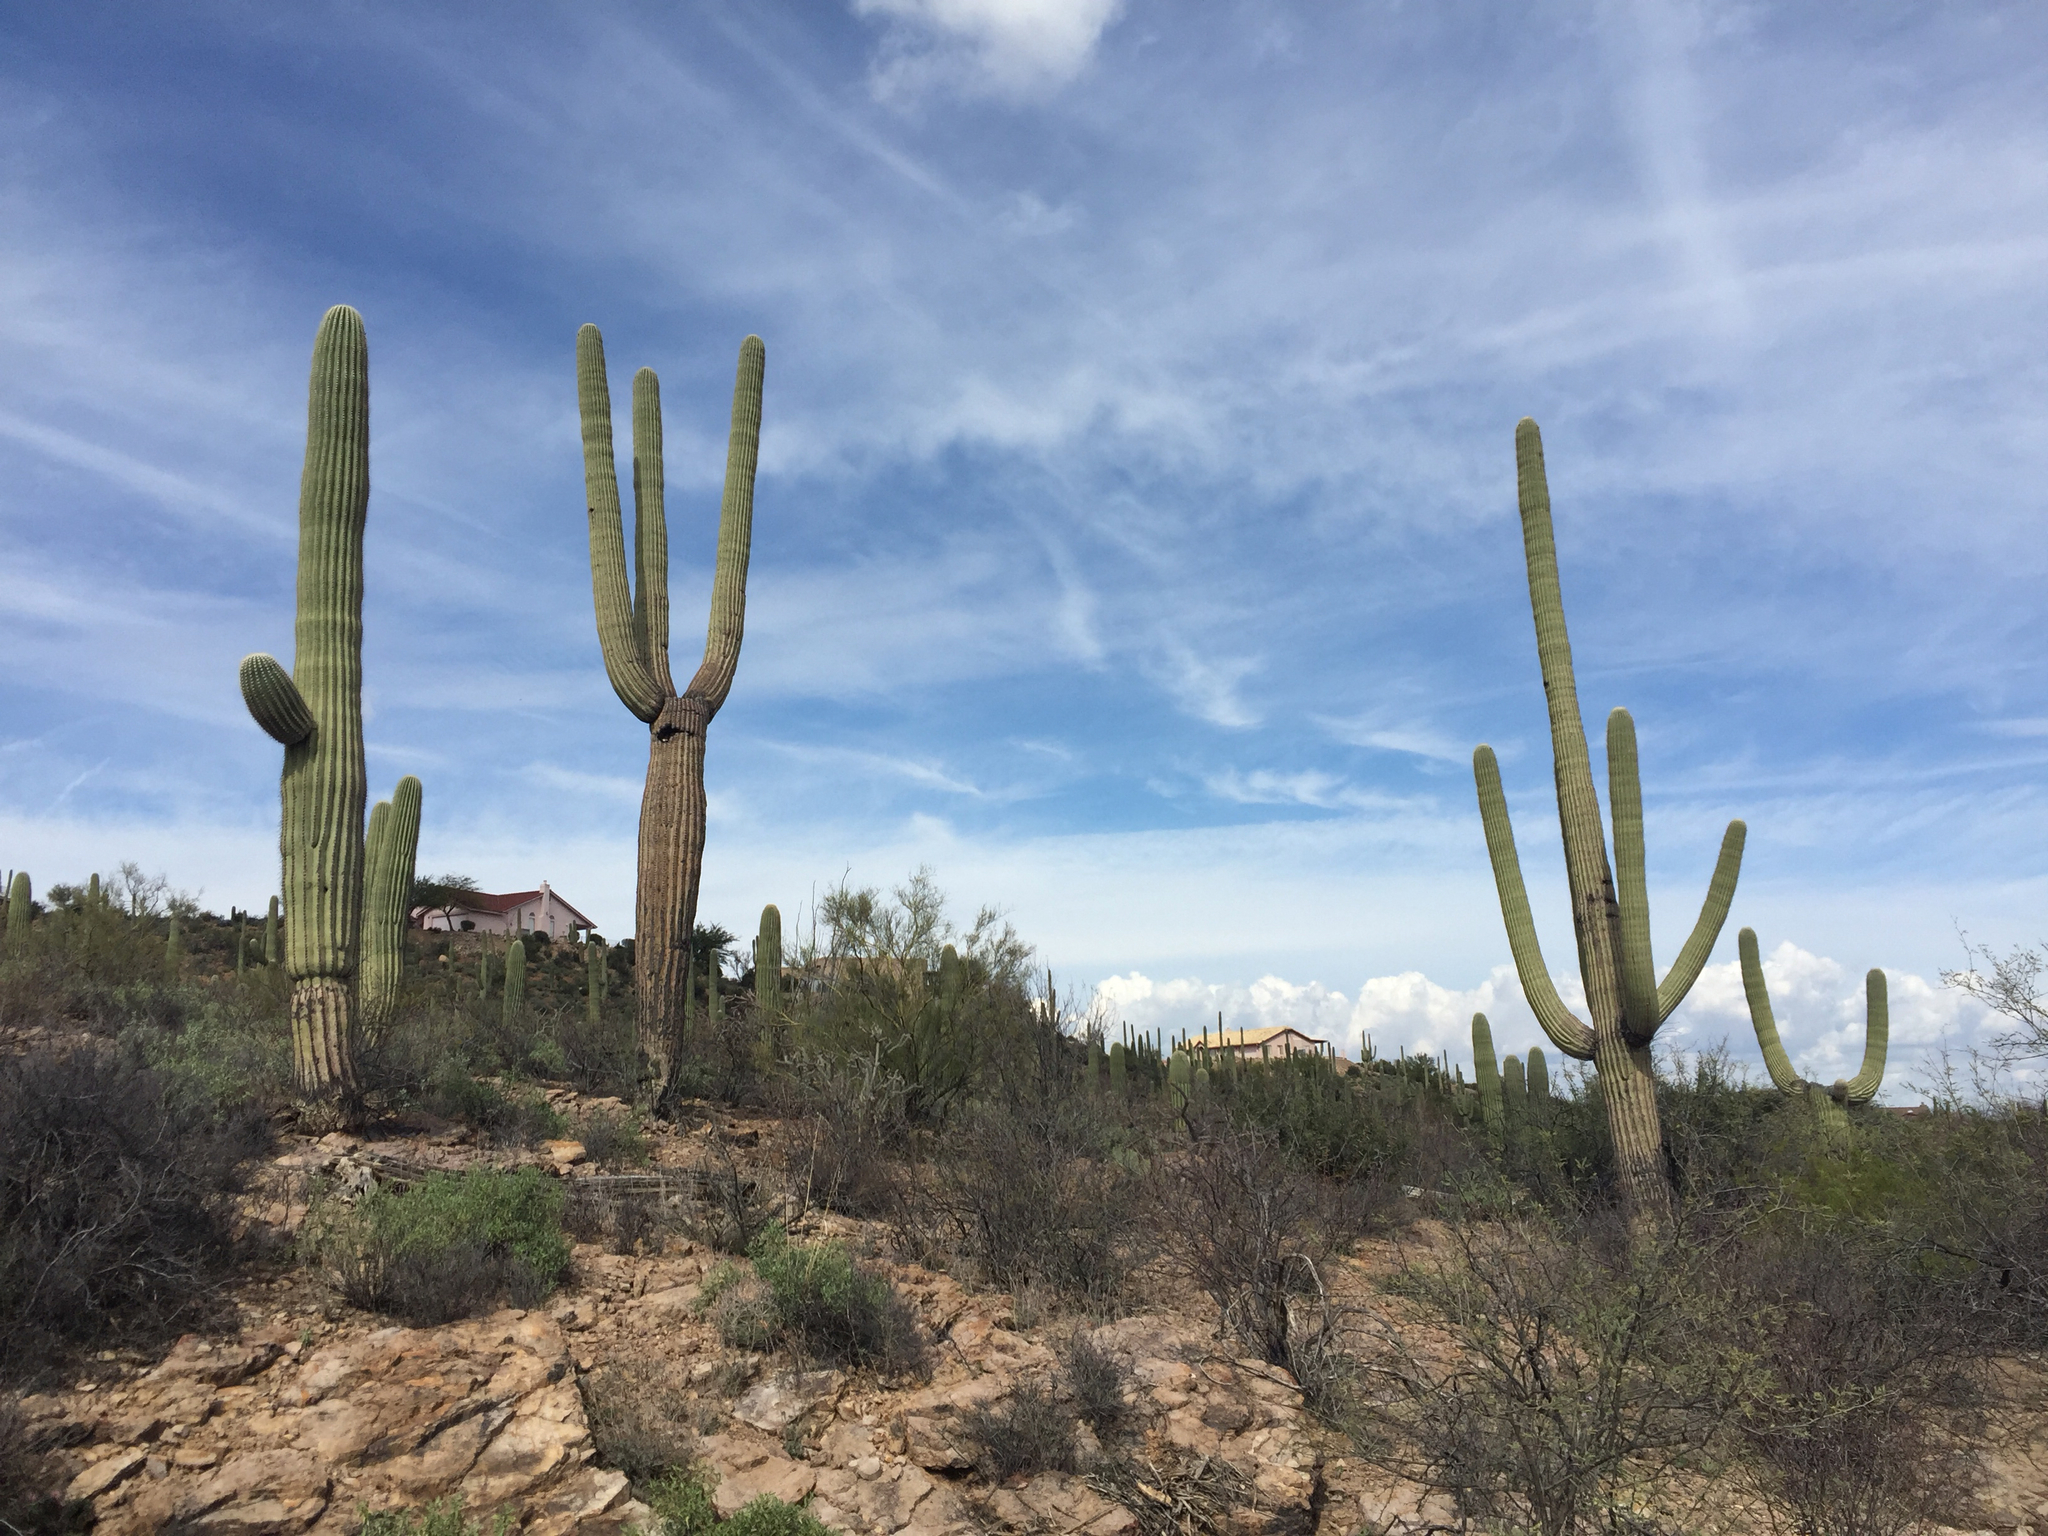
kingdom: Plantae
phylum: Tracheophyta
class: Magnoliopsida
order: Caryophyllales
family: Cactaceae
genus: Carnegiea
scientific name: Carnegiea gigantea
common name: Saguaro
